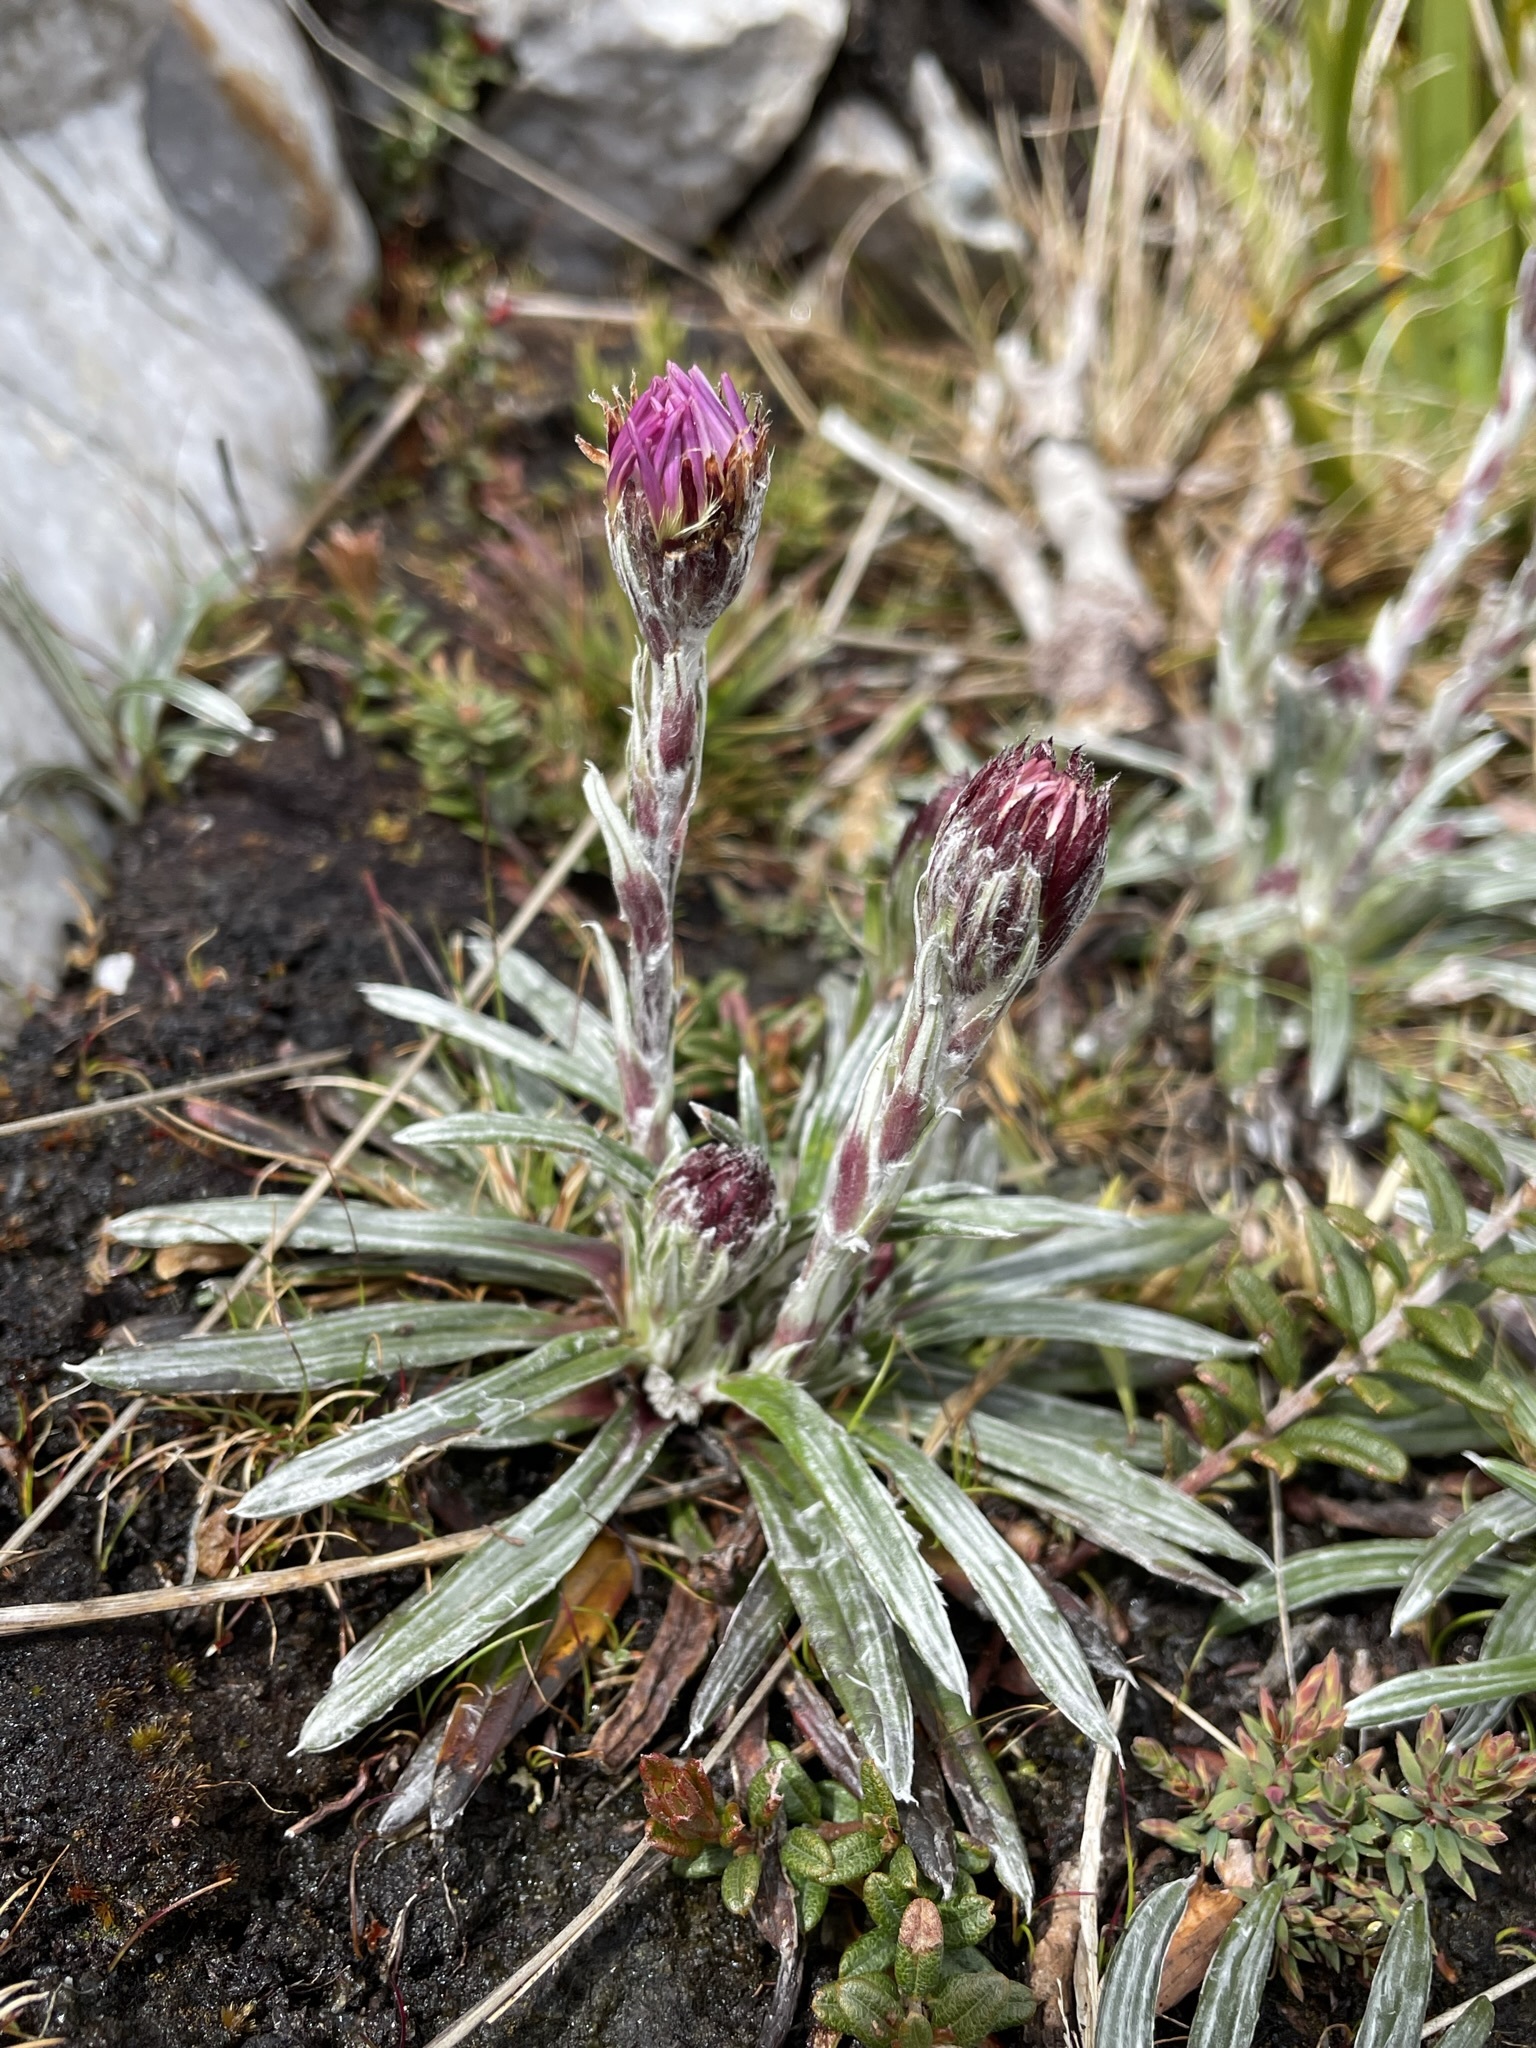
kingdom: Plantae
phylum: Tracheophyta
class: Magnoliopsida
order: Asterales
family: Asteraceae
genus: Celmisia
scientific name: Celmisia asteliifolia
